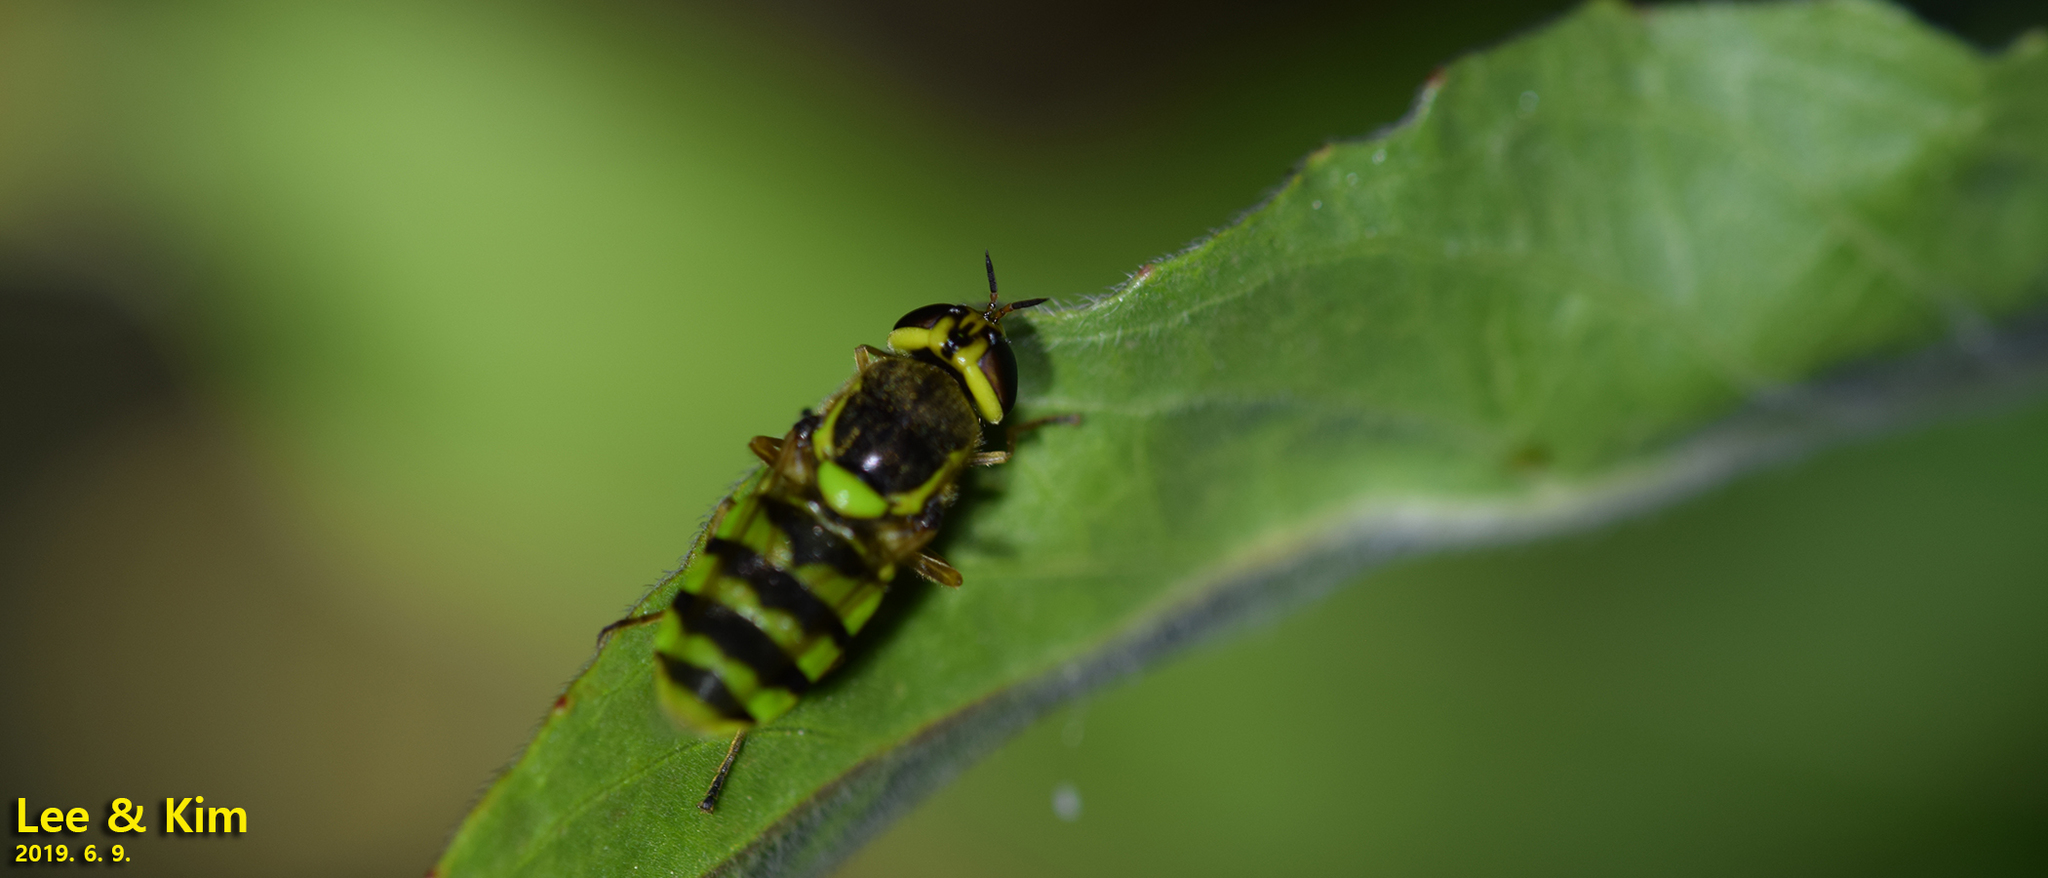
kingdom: Animalia
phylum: Arthropoda
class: Insecta
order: Diptera
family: Stratiomyidae
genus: Odontomyia
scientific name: Odontomyia garatas
